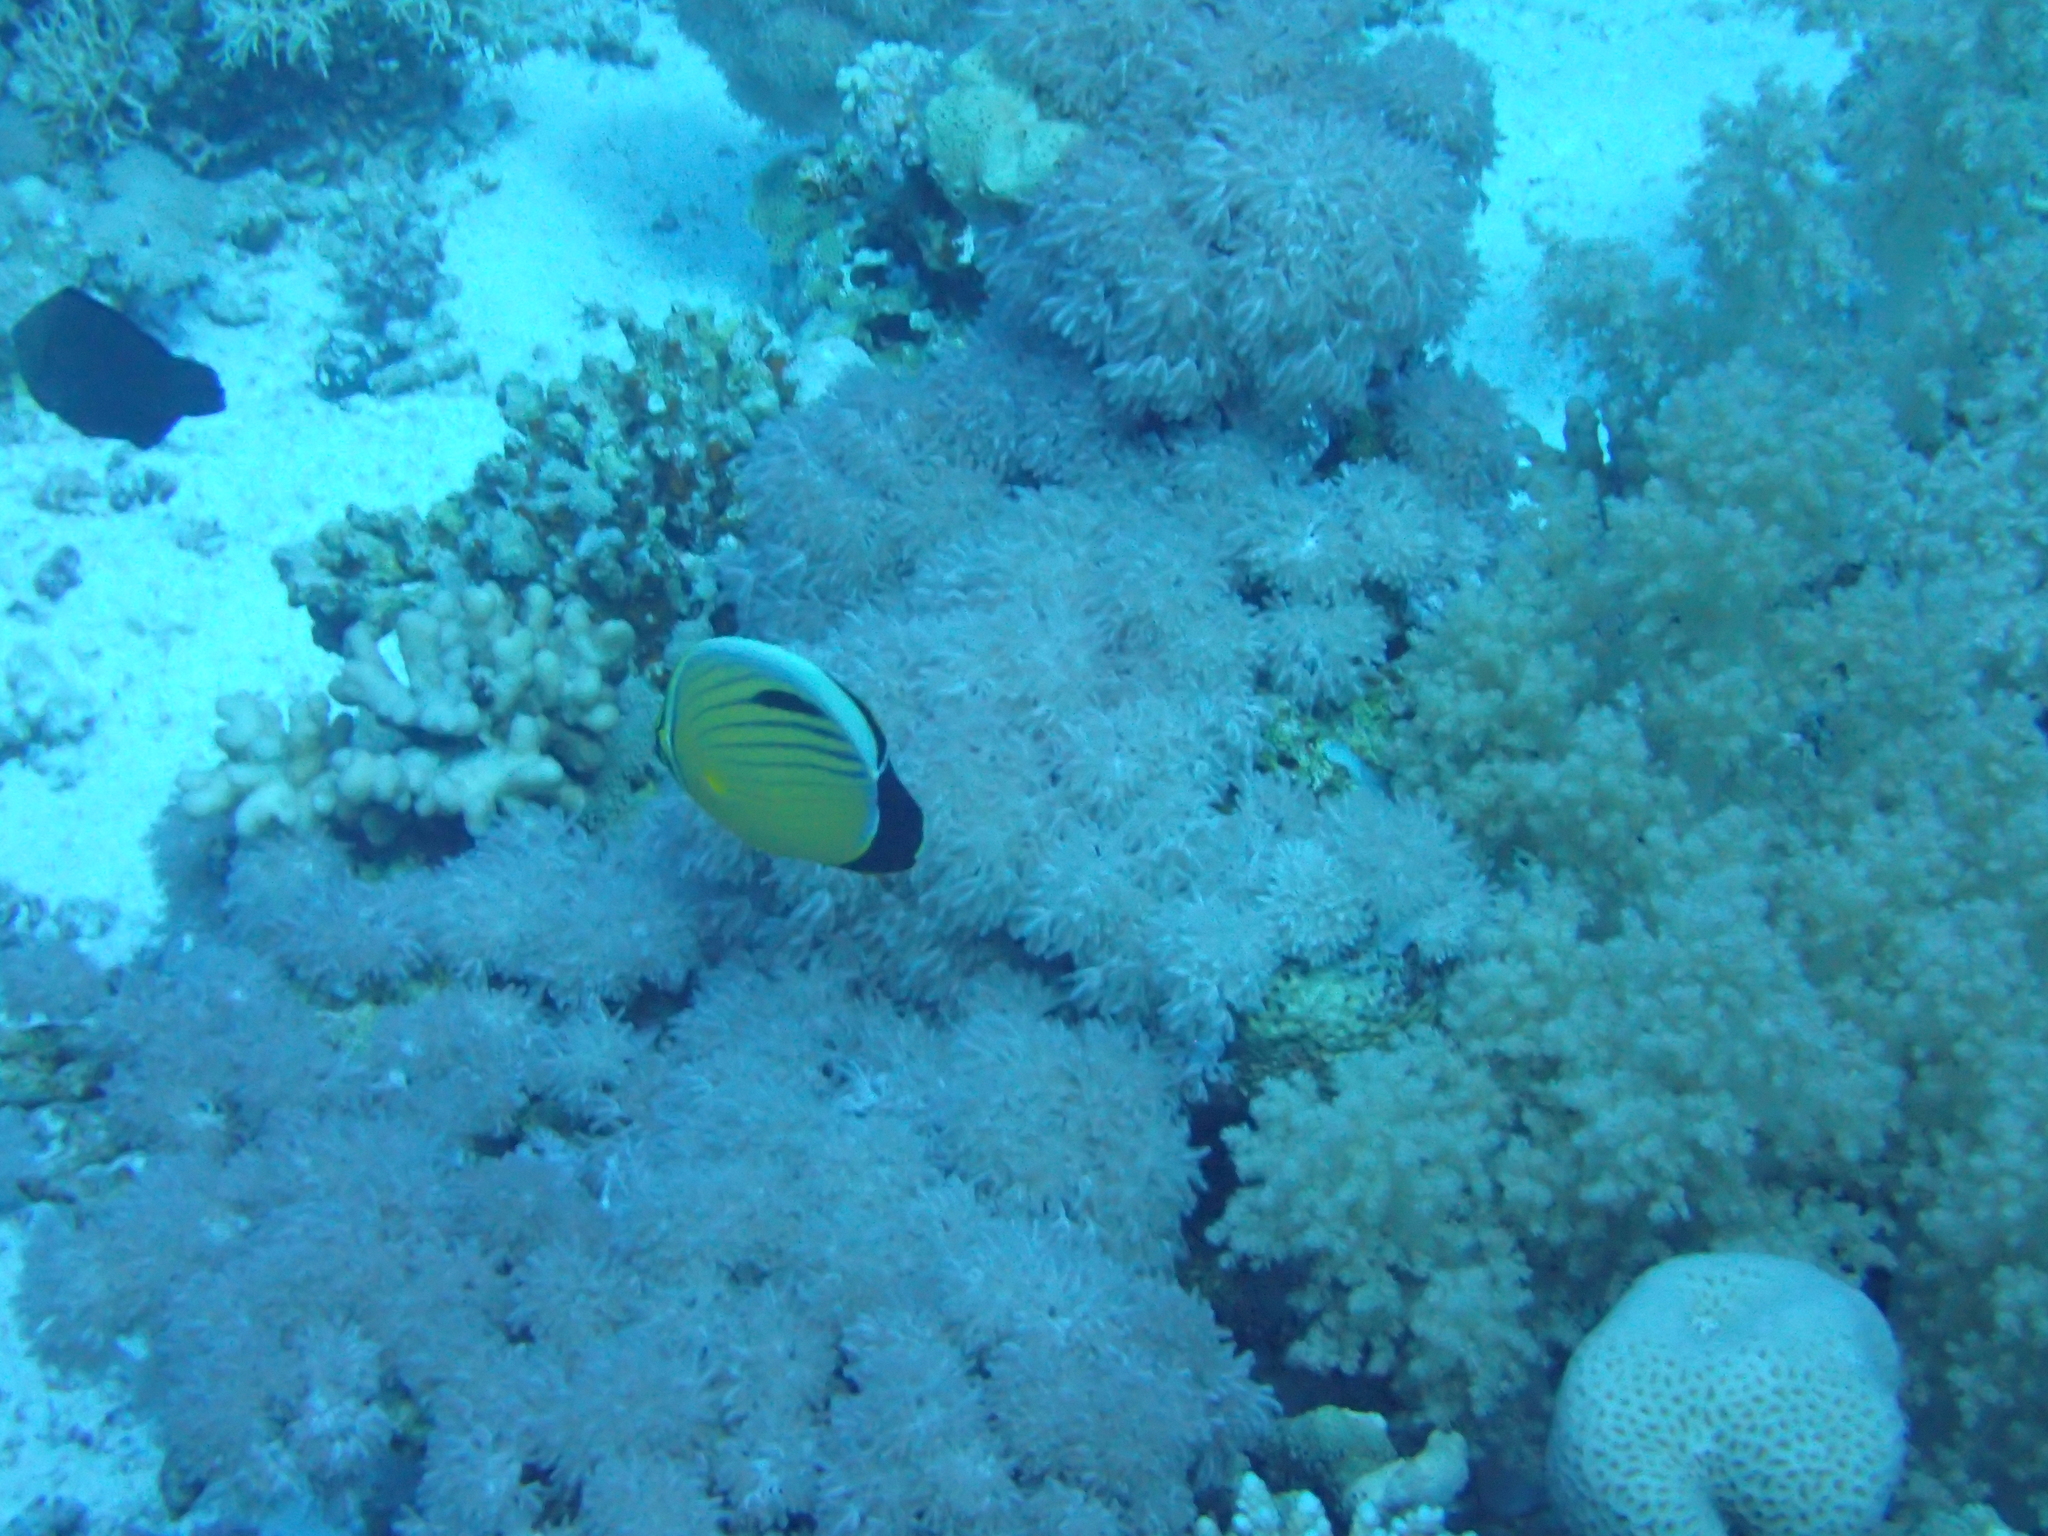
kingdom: Animalia
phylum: Chordata
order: Perciformes
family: Chaetodontidae
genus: Chaetodon
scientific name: Chaetodon austriacus
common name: Exquisite butterflyfish
